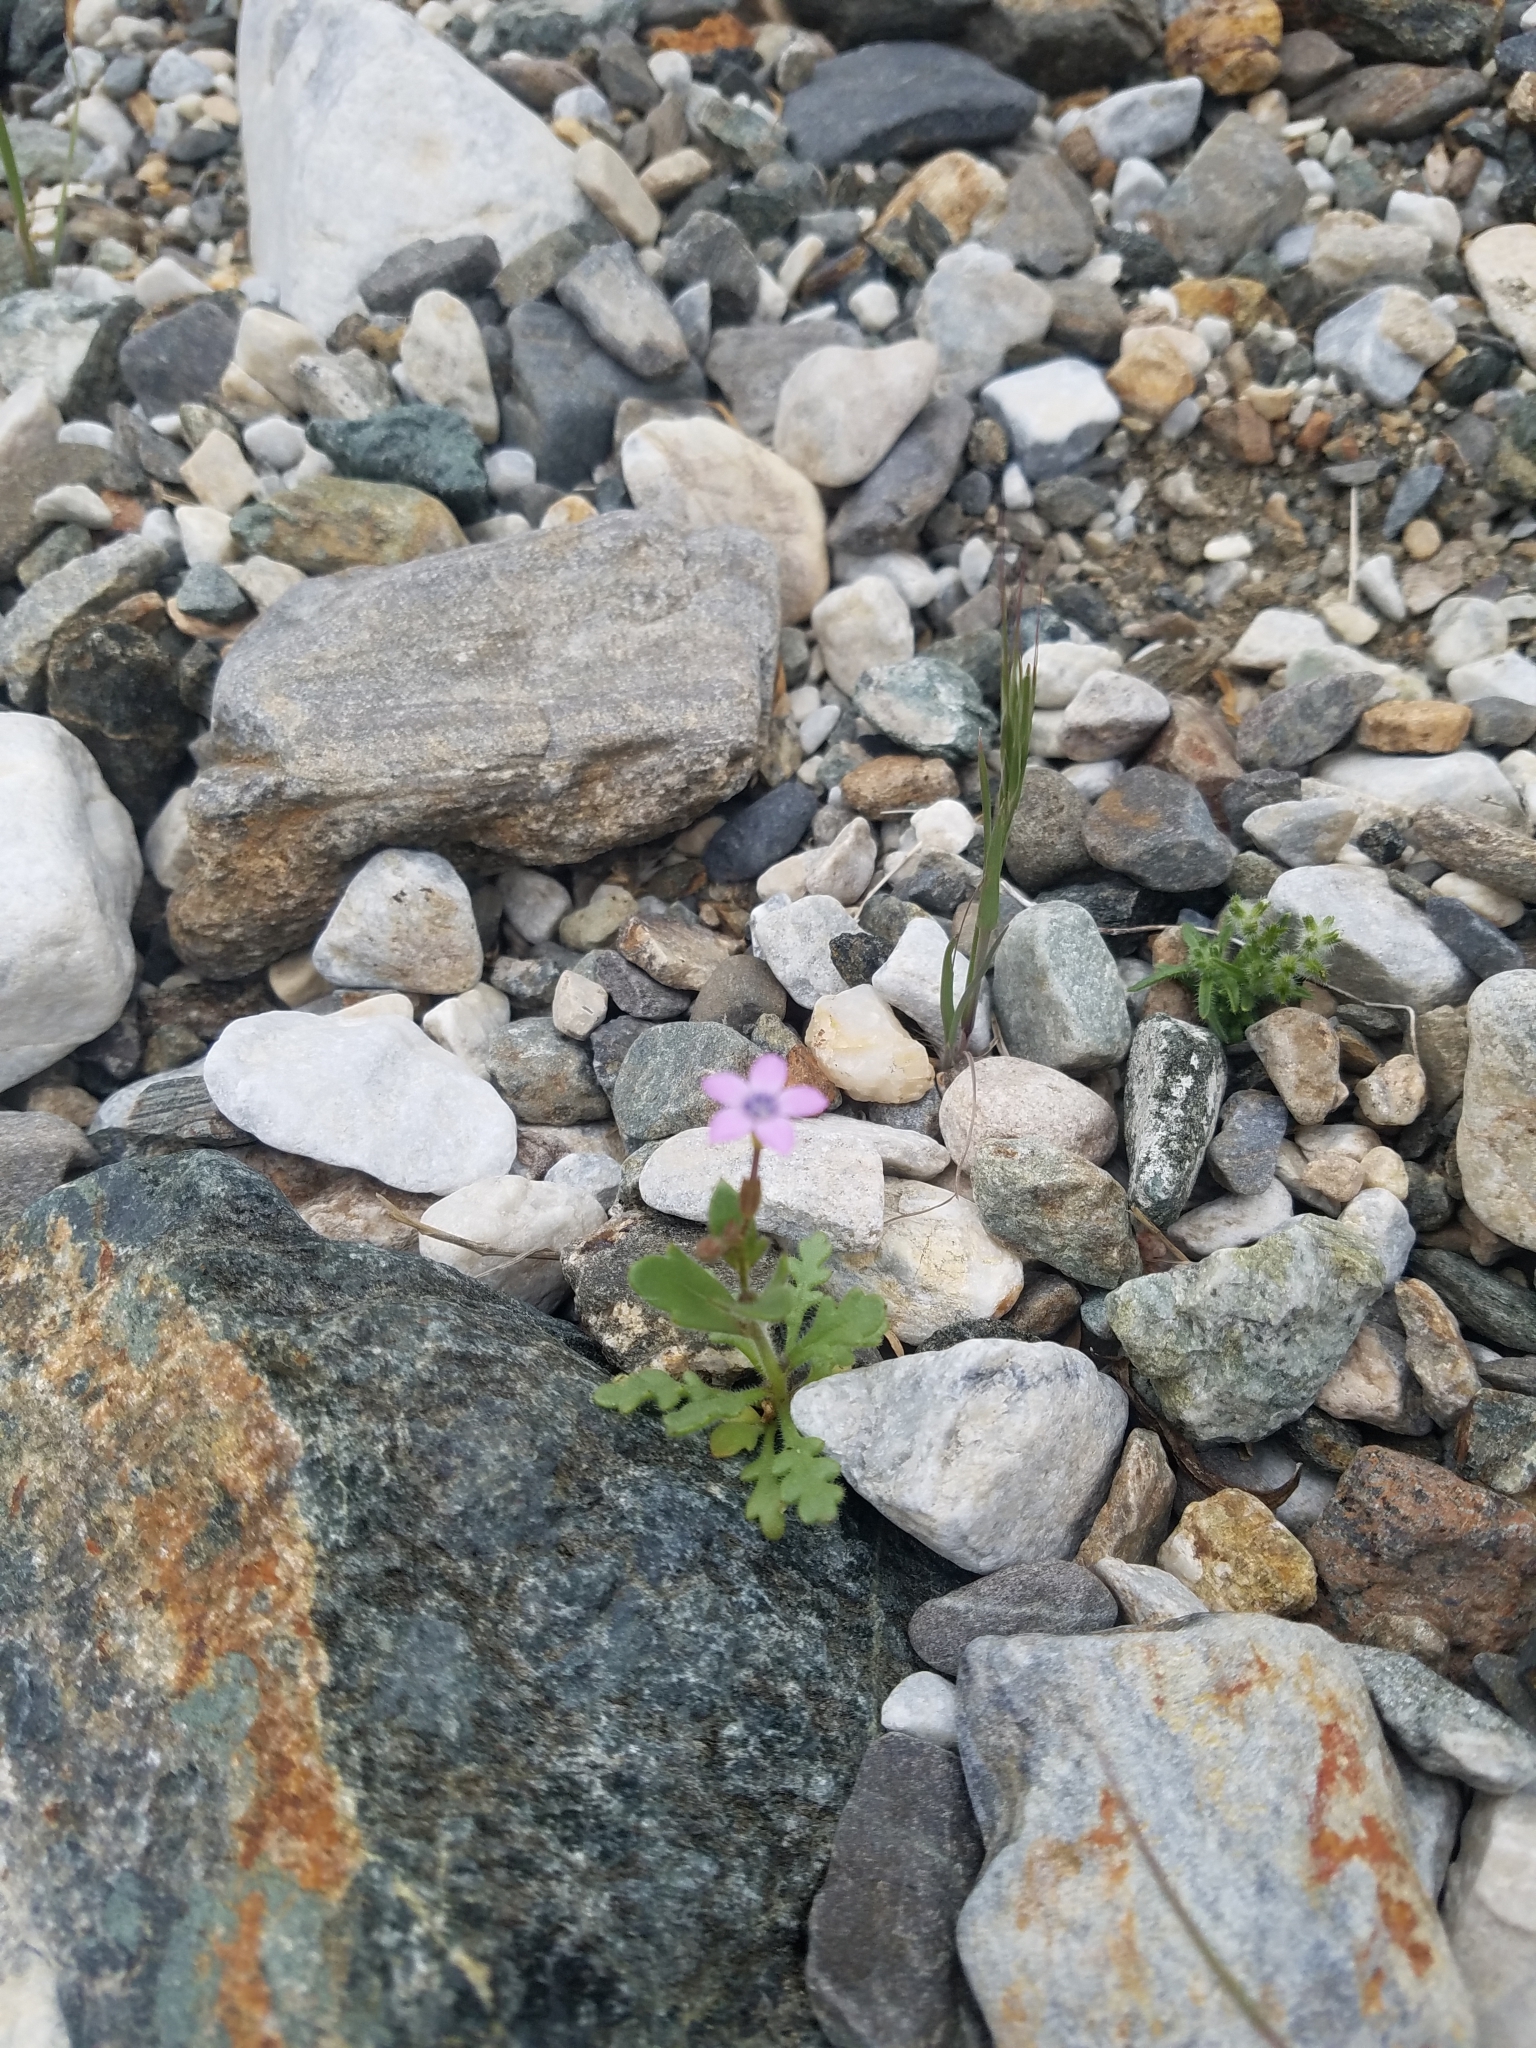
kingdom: Plantae
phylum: Tracheophyta
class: Magnoliopsida
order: Ericales
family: Polemoniaceae
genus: Gilia
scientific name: Gilia scopulorum
